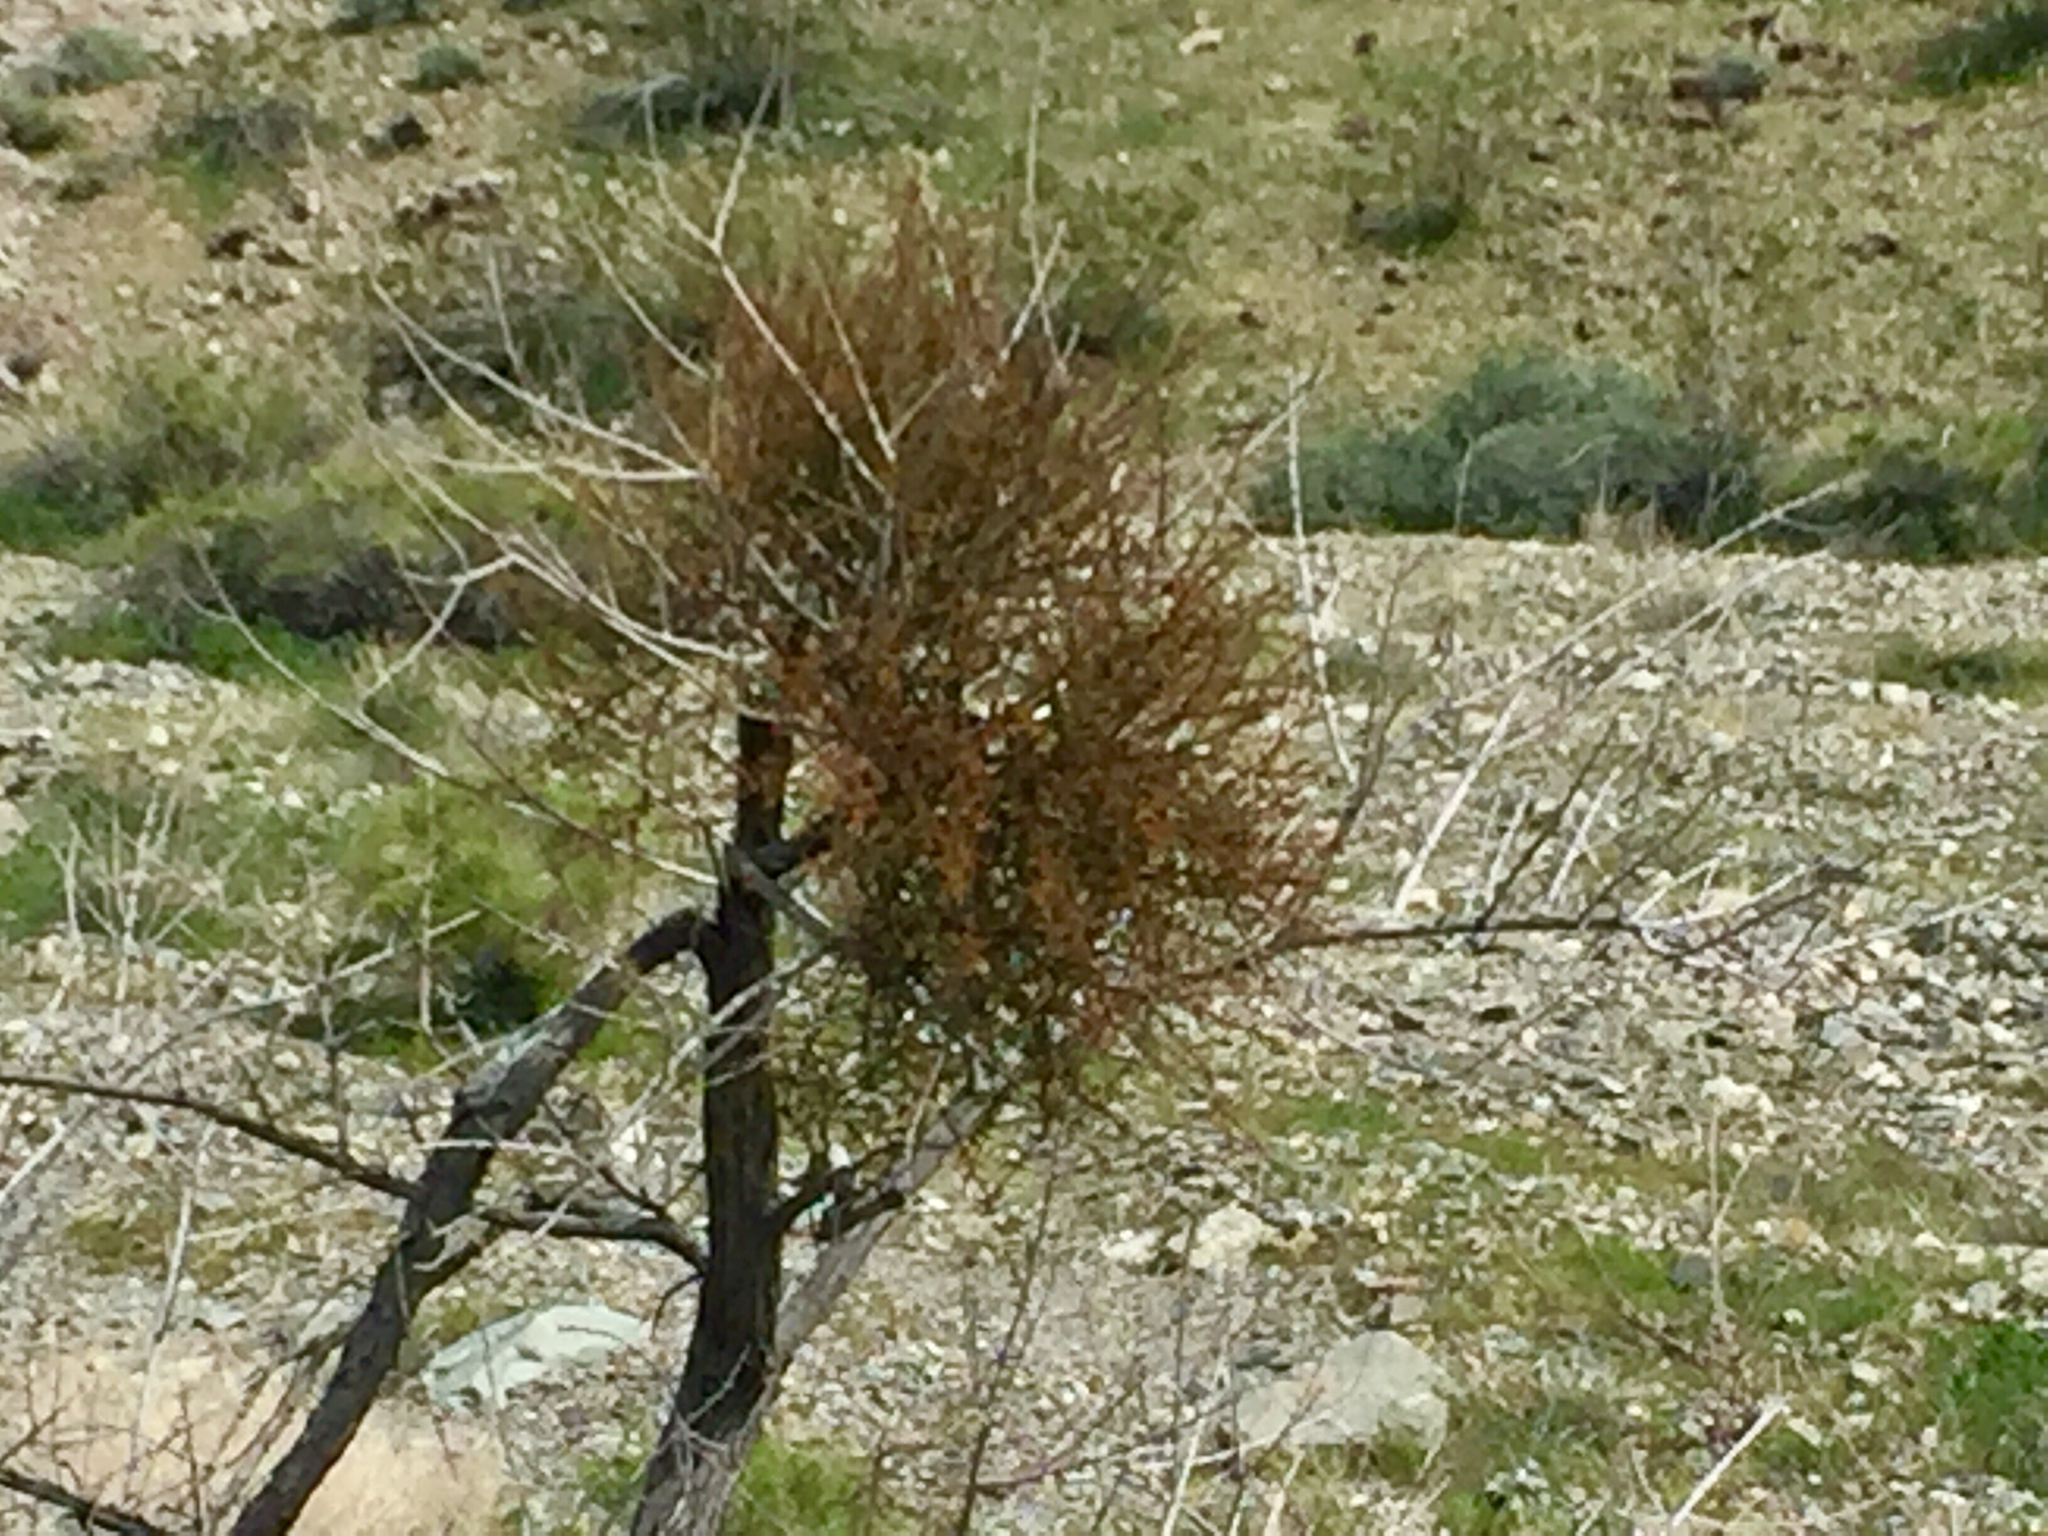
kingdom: Plantae
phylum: Tracheophyta
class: Magnoliopsida
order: Santalales
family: Viscaceae
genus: Phoradendron
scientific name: Phoradendron californicum
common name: Acacia mistletoe
